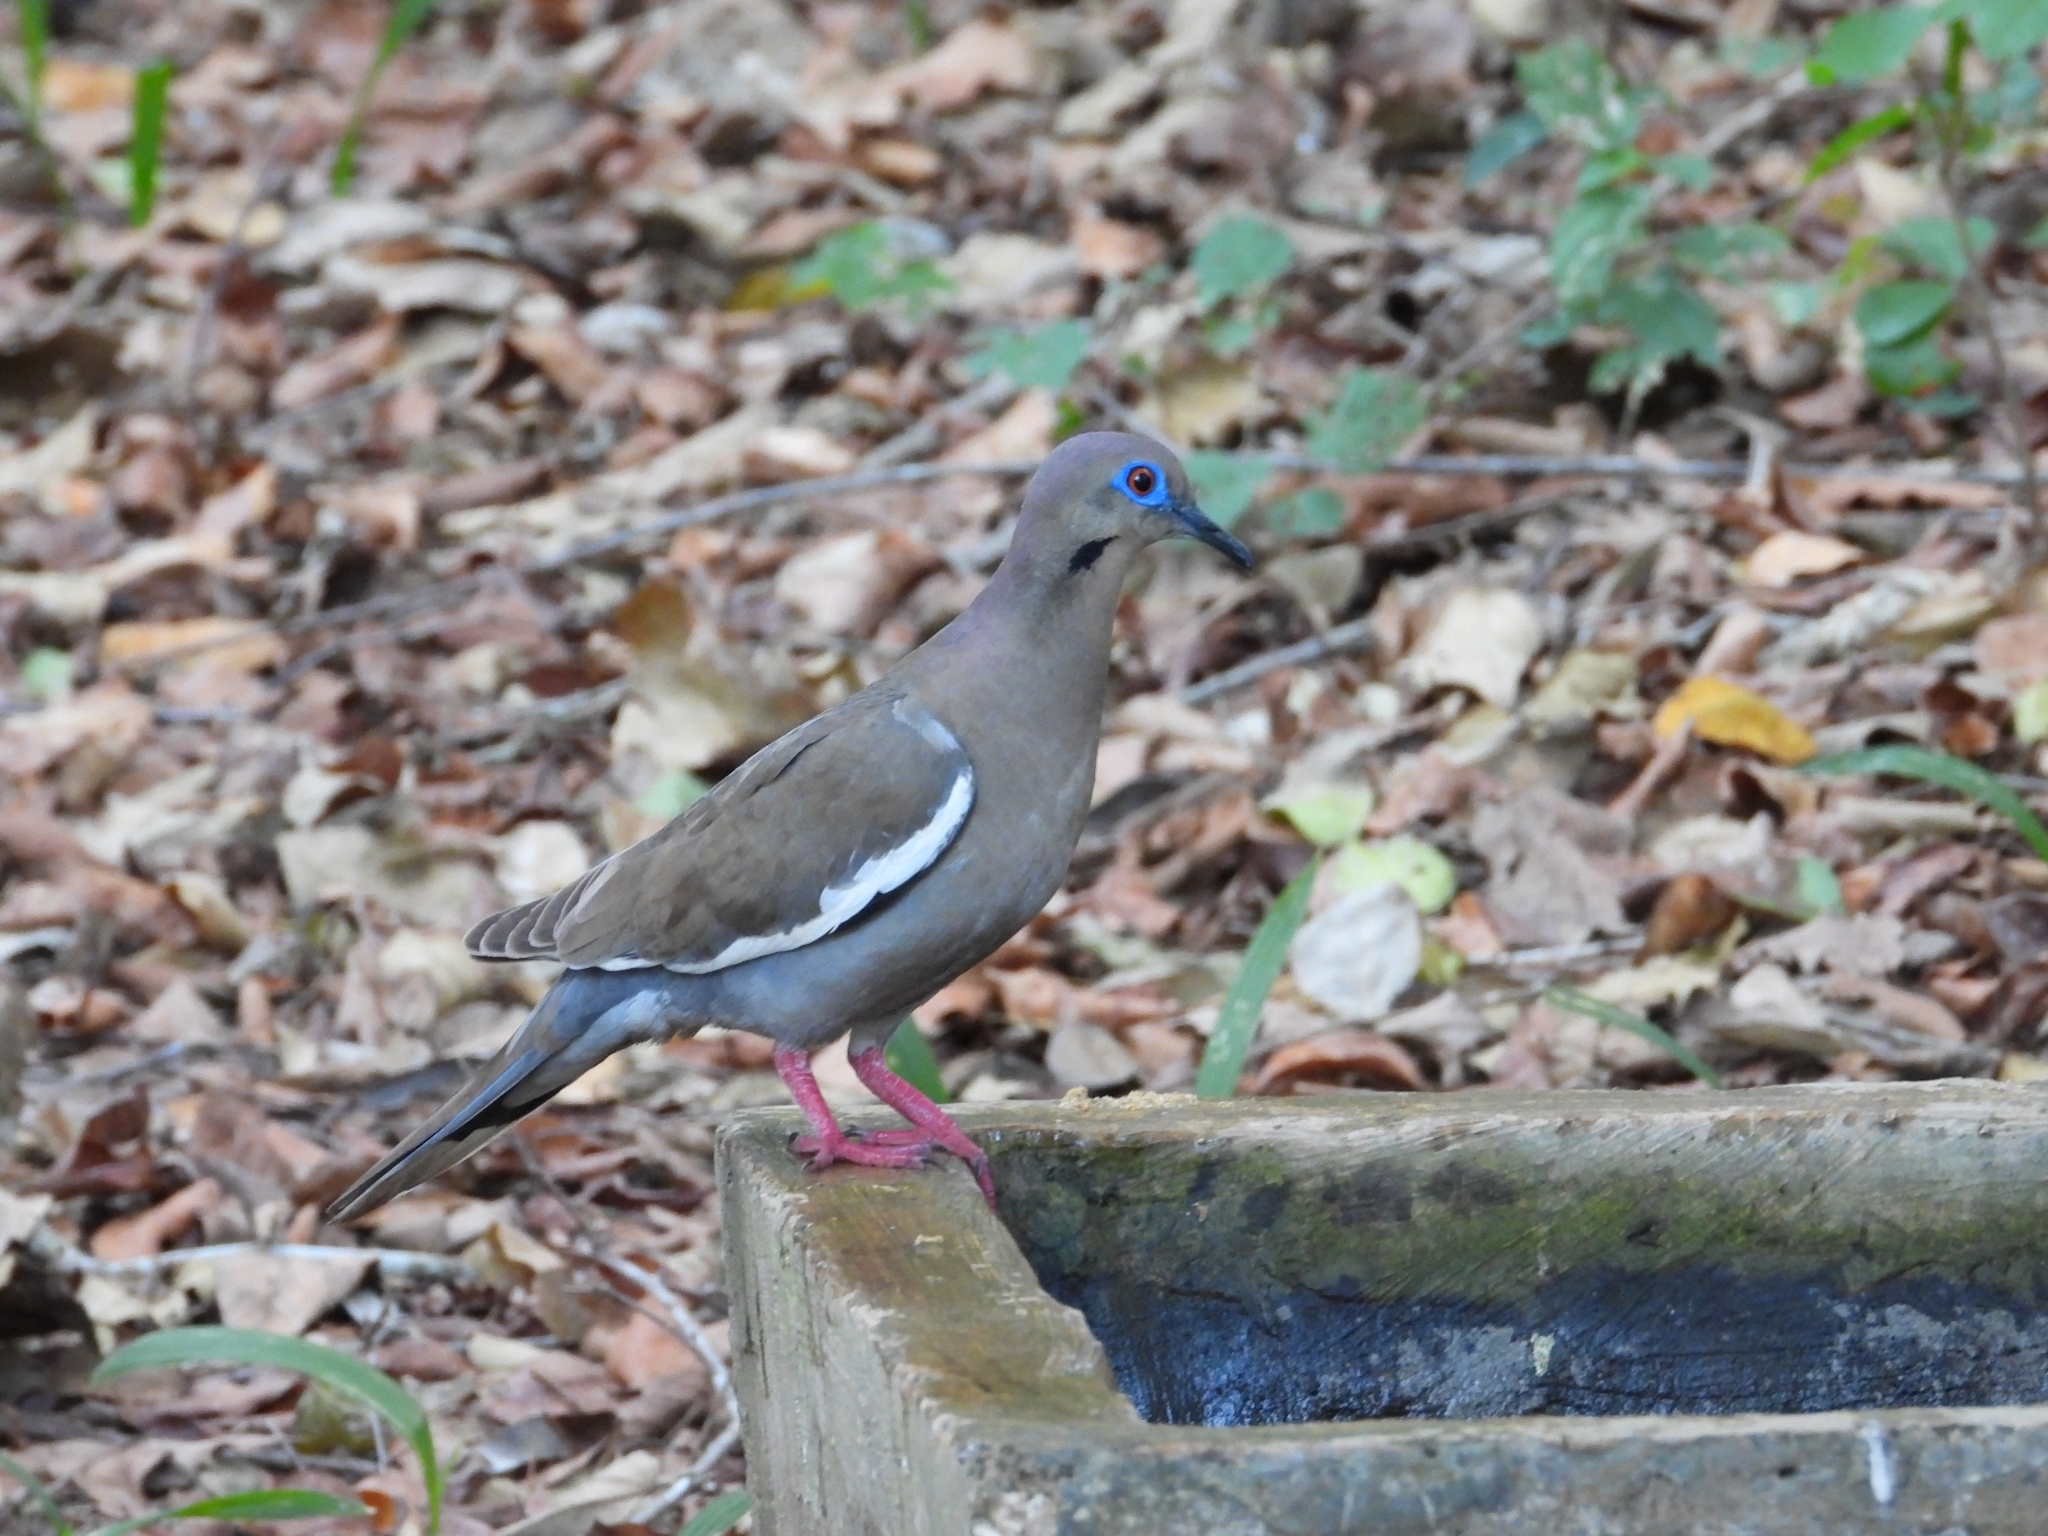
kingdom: Animalia
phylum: Chordata
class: Aves
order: Columbiformes
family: Columbidae
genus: Zenaida
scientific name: Zenaida asiatica
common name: White-winged dove
